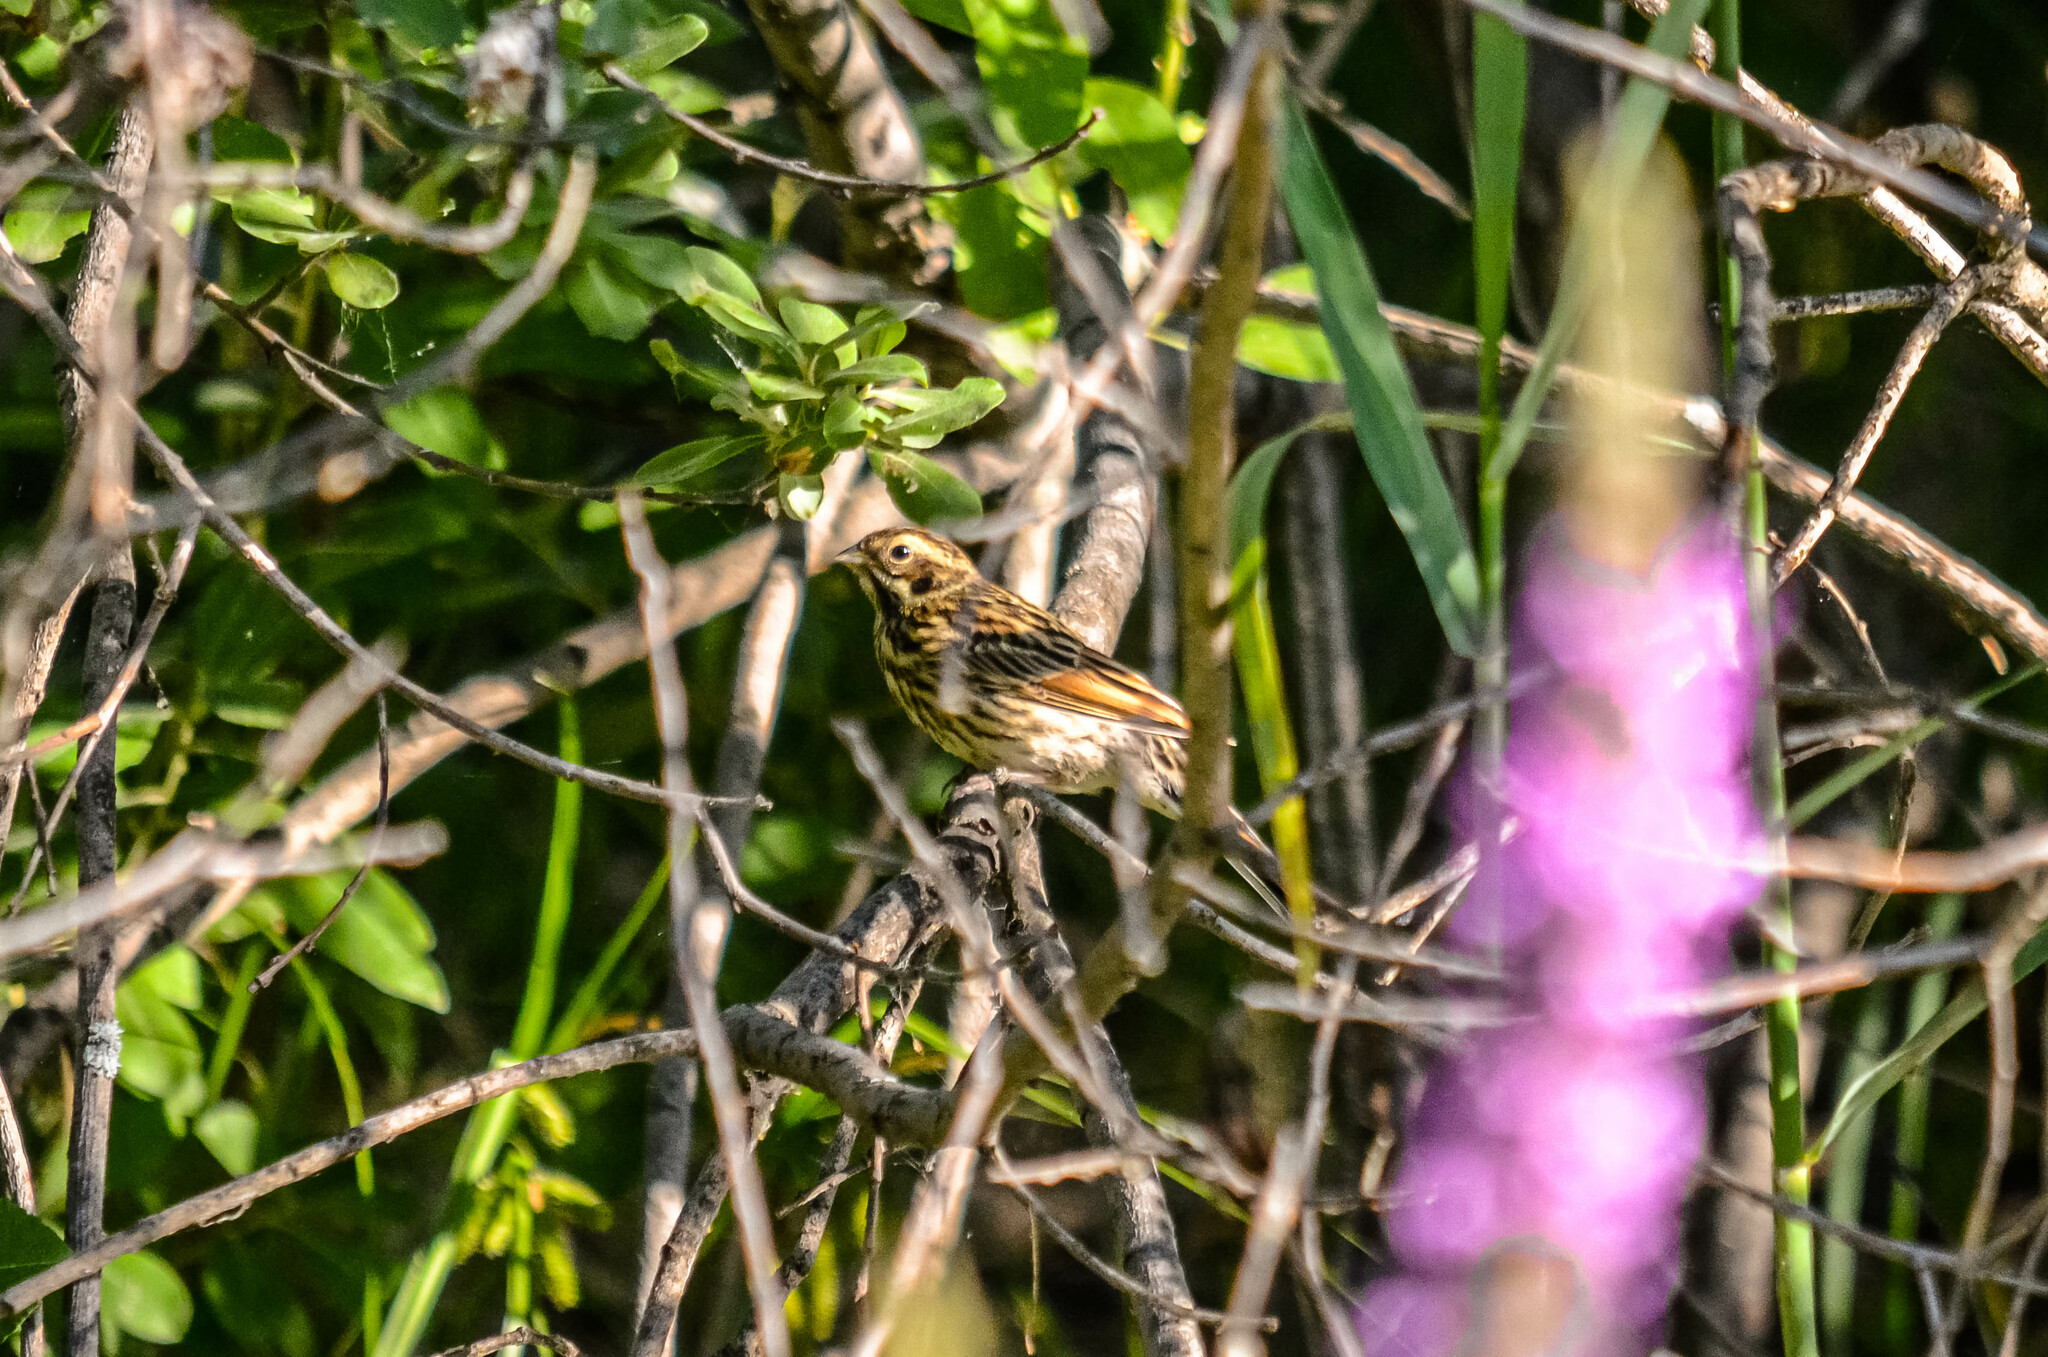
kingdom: Animalia
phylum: Chordata
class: Aves
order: Passeriformes
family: Emberizidae
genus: Emberiza
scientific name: Emberiza schoeniclus
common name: Reed bunting
